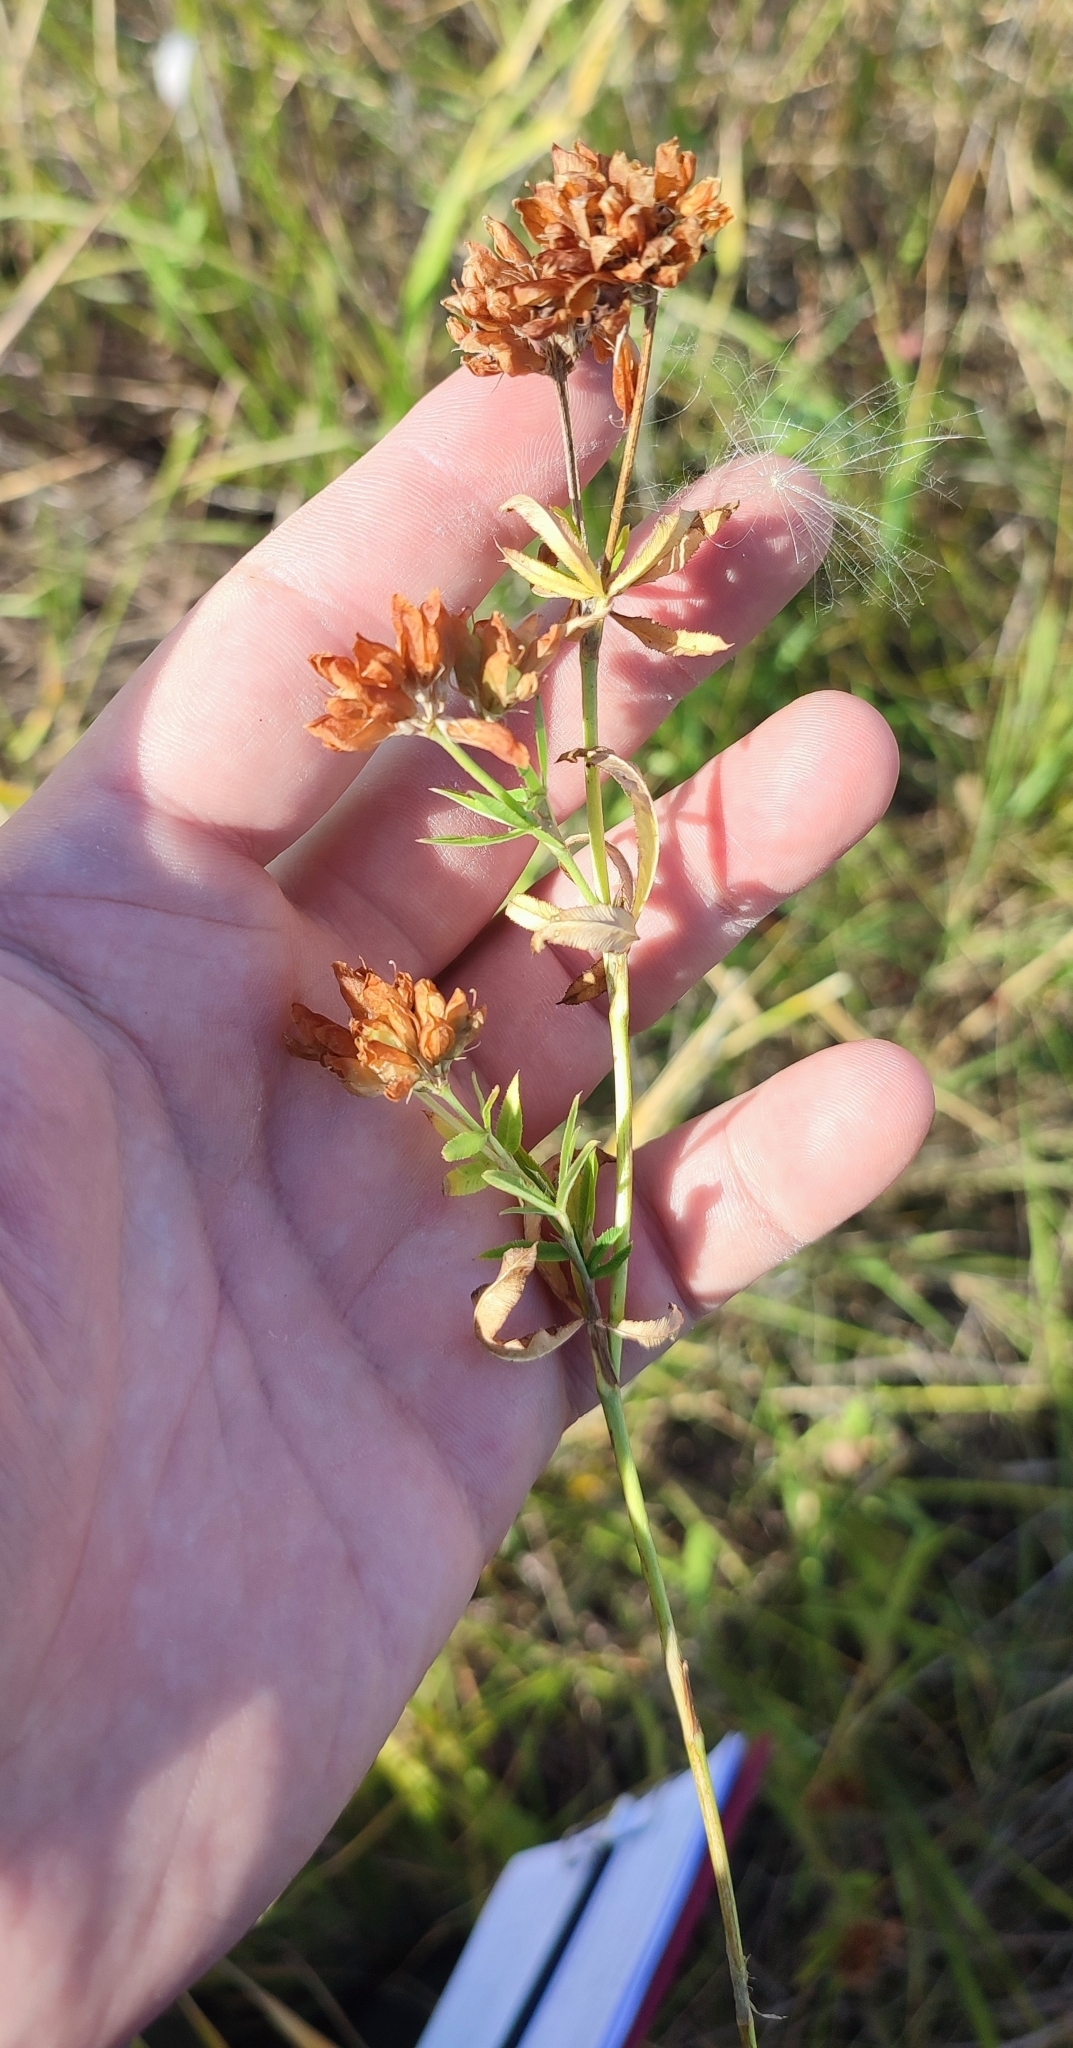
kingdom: Plantae
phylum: Tracheophyta
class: Magnoliopsida
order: Fabales
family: Fabaceae
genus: Trifolium
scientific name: Trifolium lupinaster
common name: Lupine clover
